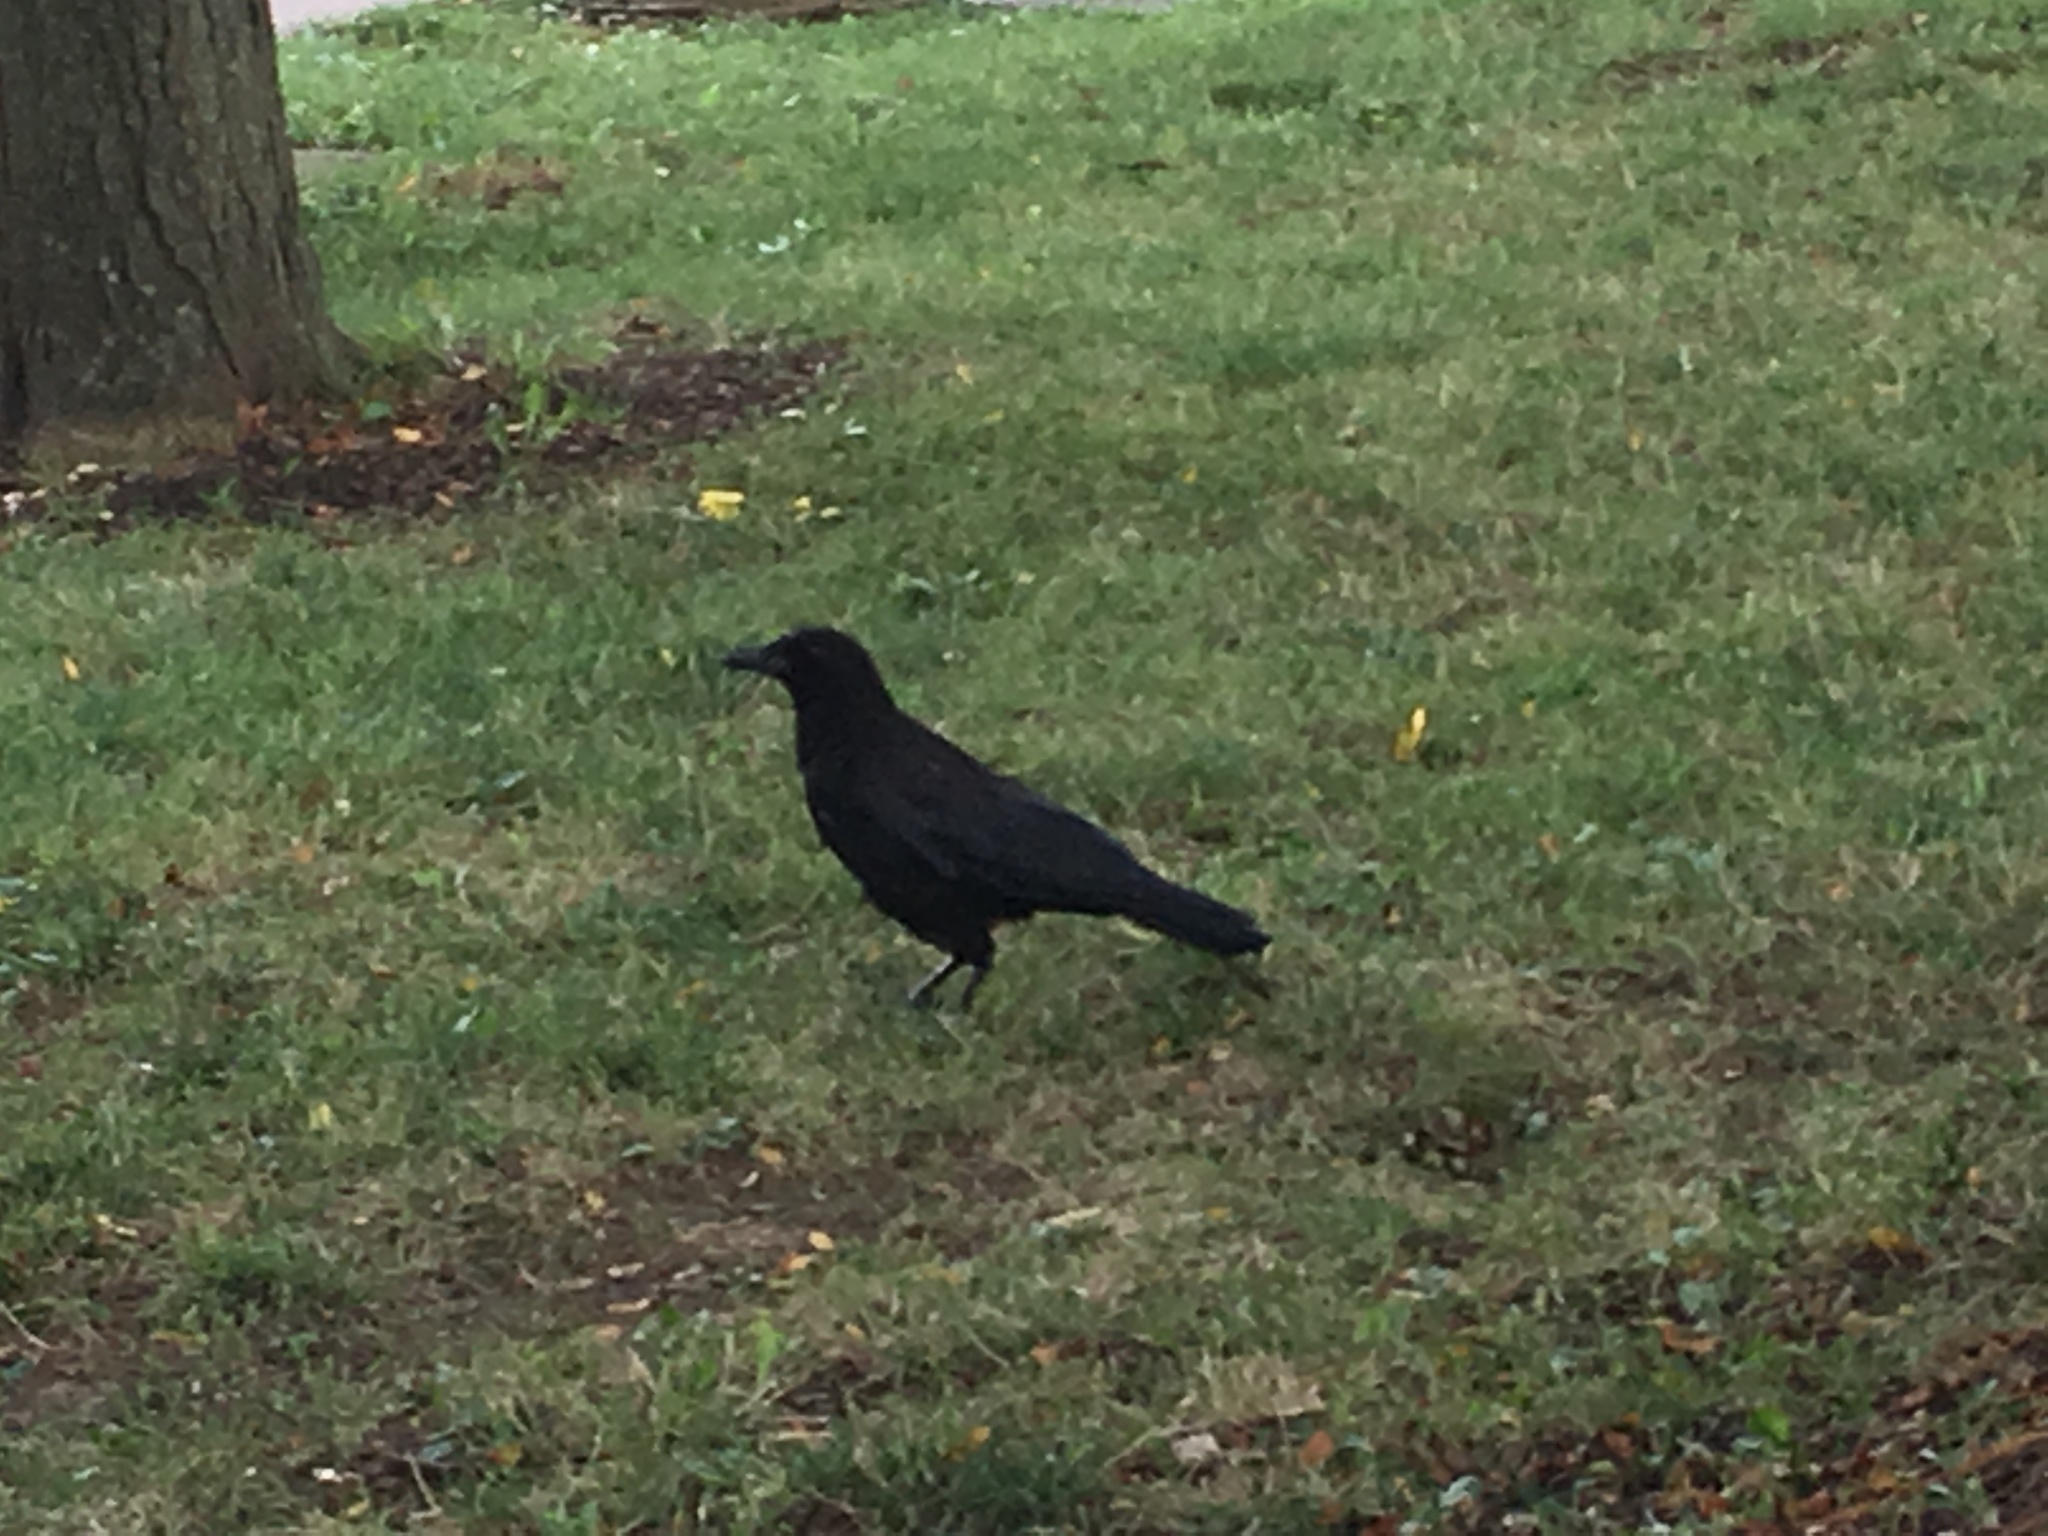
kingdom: Animalia
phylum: Chordata
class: Aves
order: Passeriformes
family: Corvidae
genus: Corvus
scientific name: Corvus brachyrhynchos
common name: American crow
